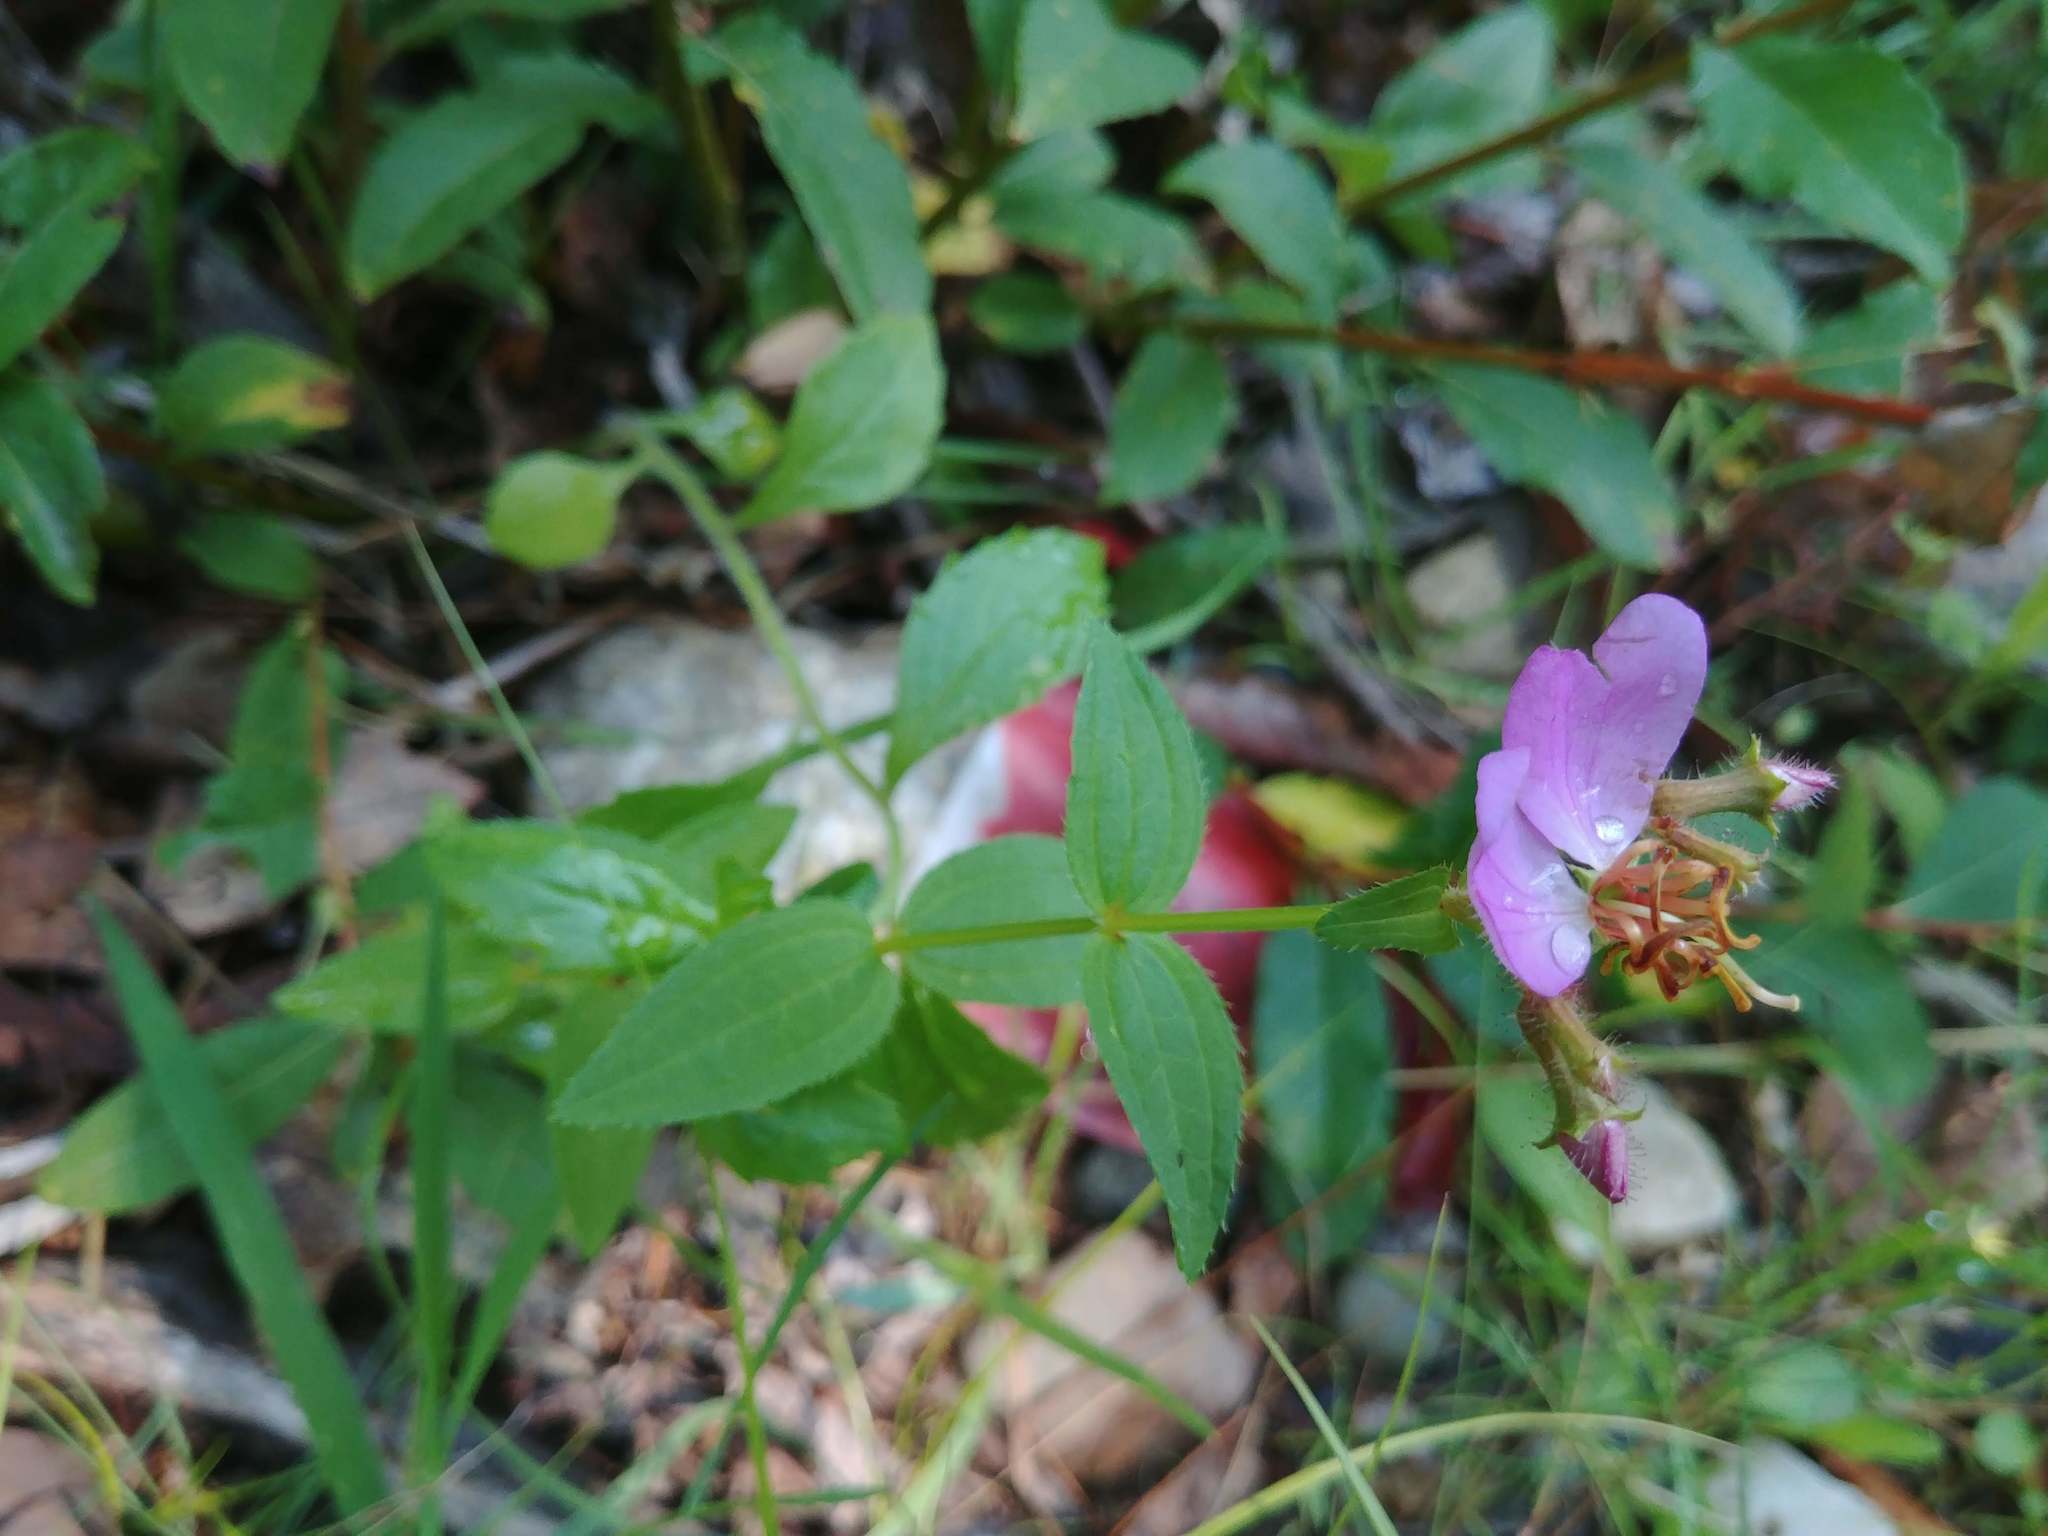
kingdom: Plantae
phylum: Tracheophyta
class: Magnoliopsida
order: Myrtales
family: Melastomataceae
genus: Rhexia
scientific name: Rhexia virginica
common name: Common meadow beauty
